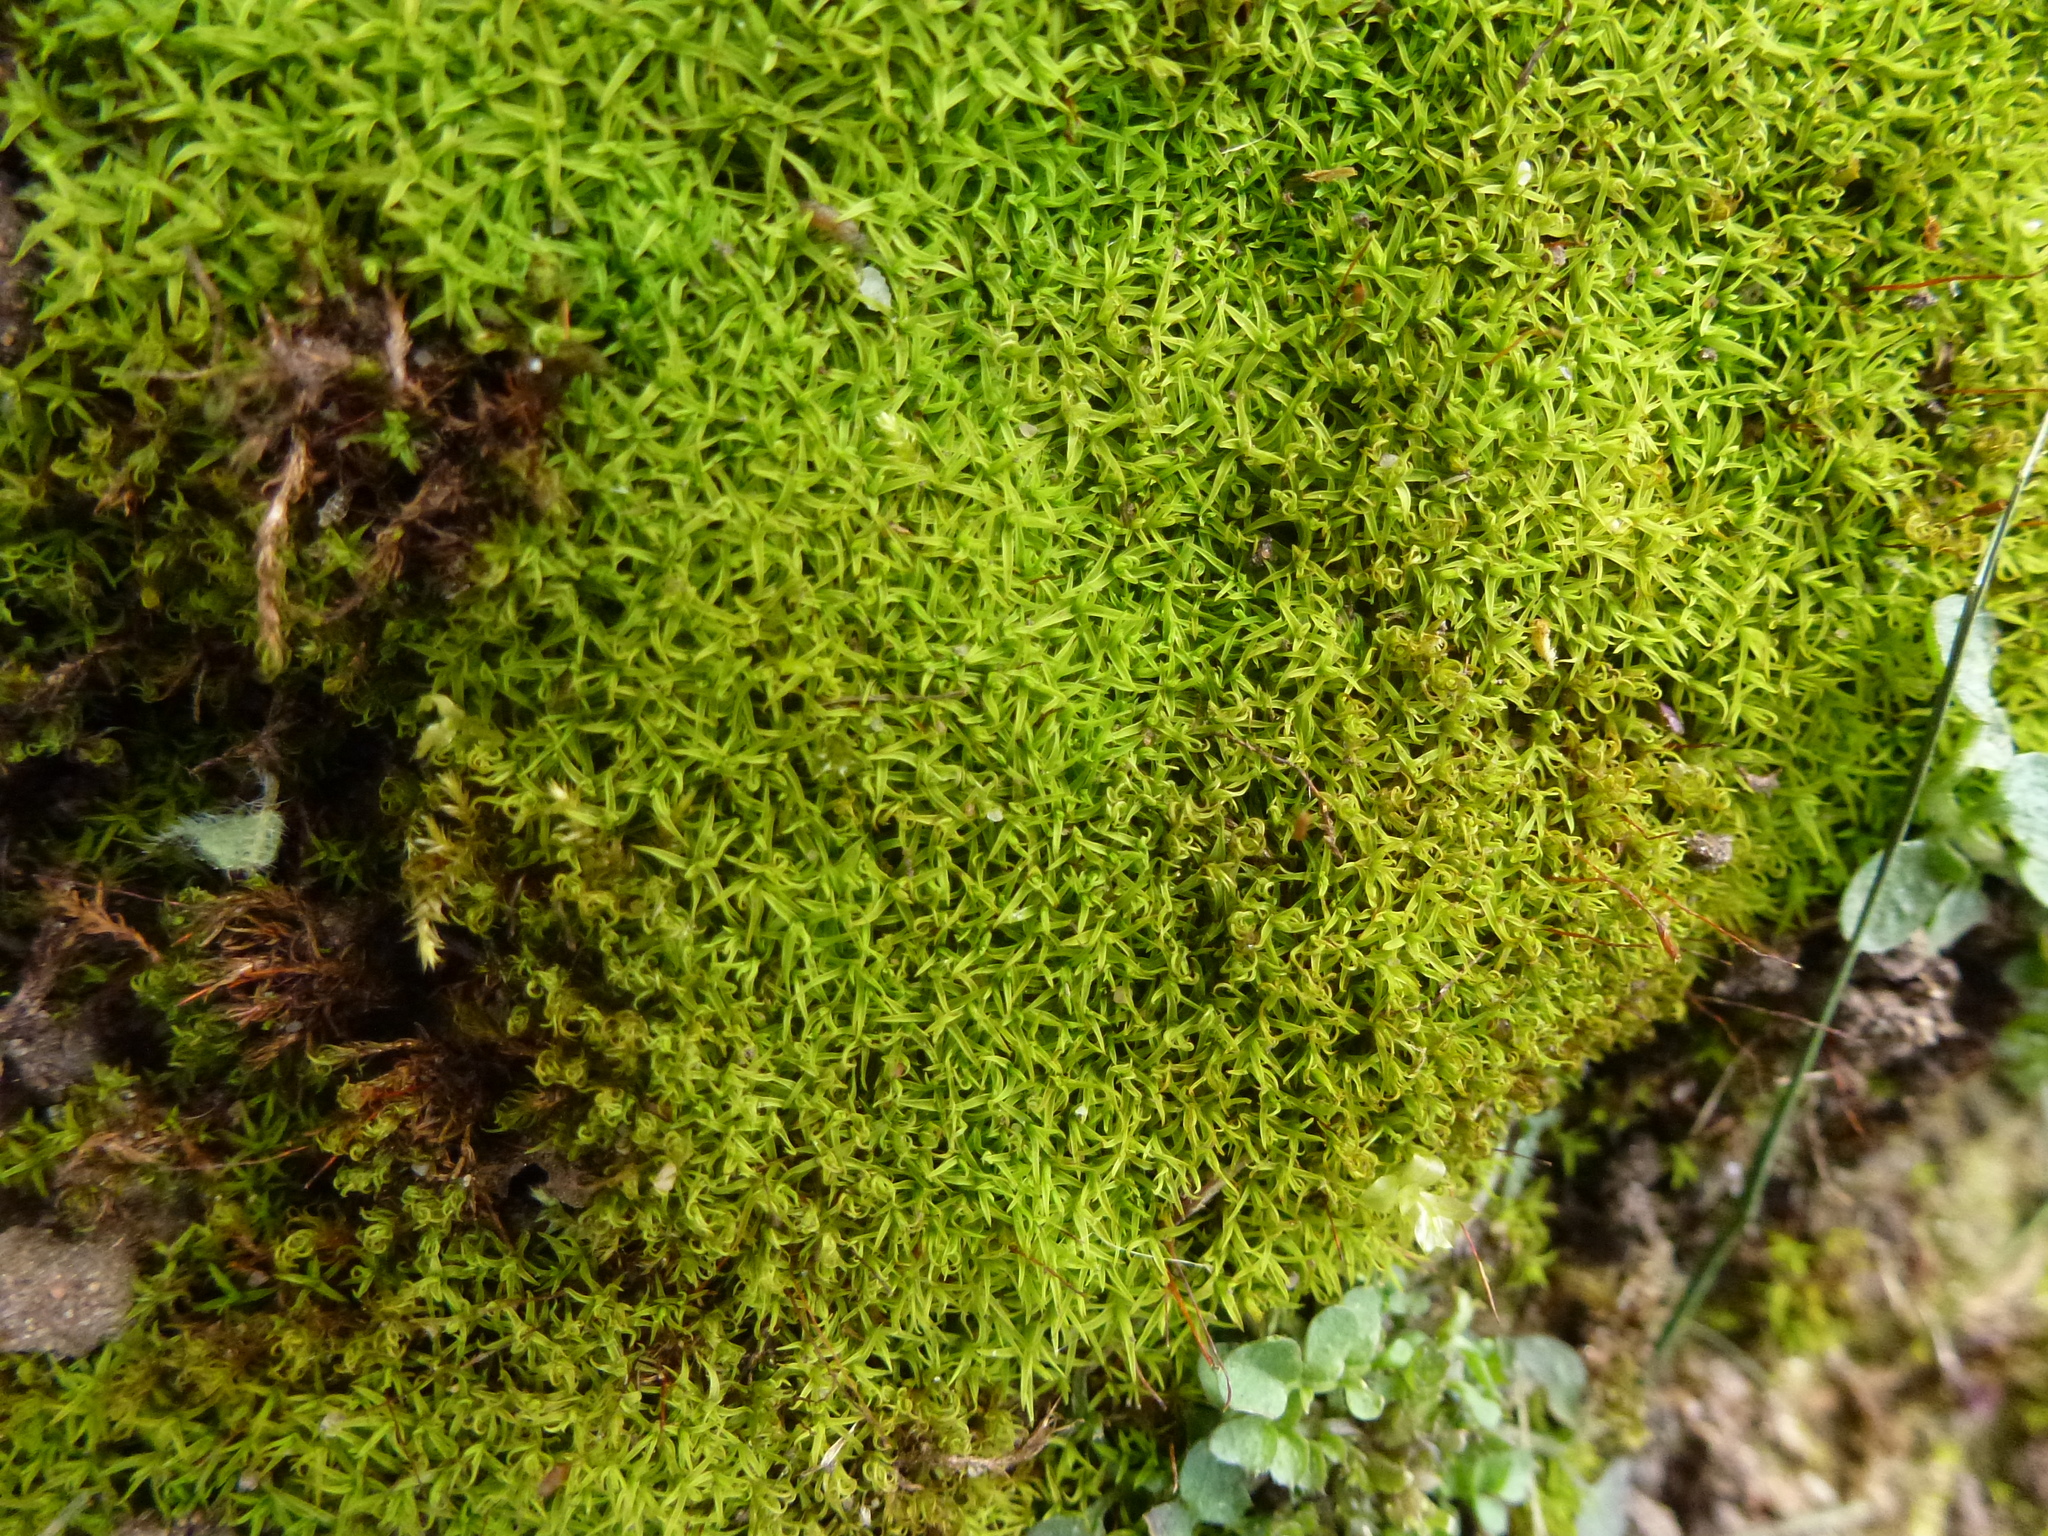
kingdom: Plantae
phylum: Bryophyta
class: Bryopsida
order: Pottiales
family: Pottiaceae
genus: Bryoerythrophyllum
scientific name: Bryoerythrophyllum recurvirostrum
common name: Red beard moss
